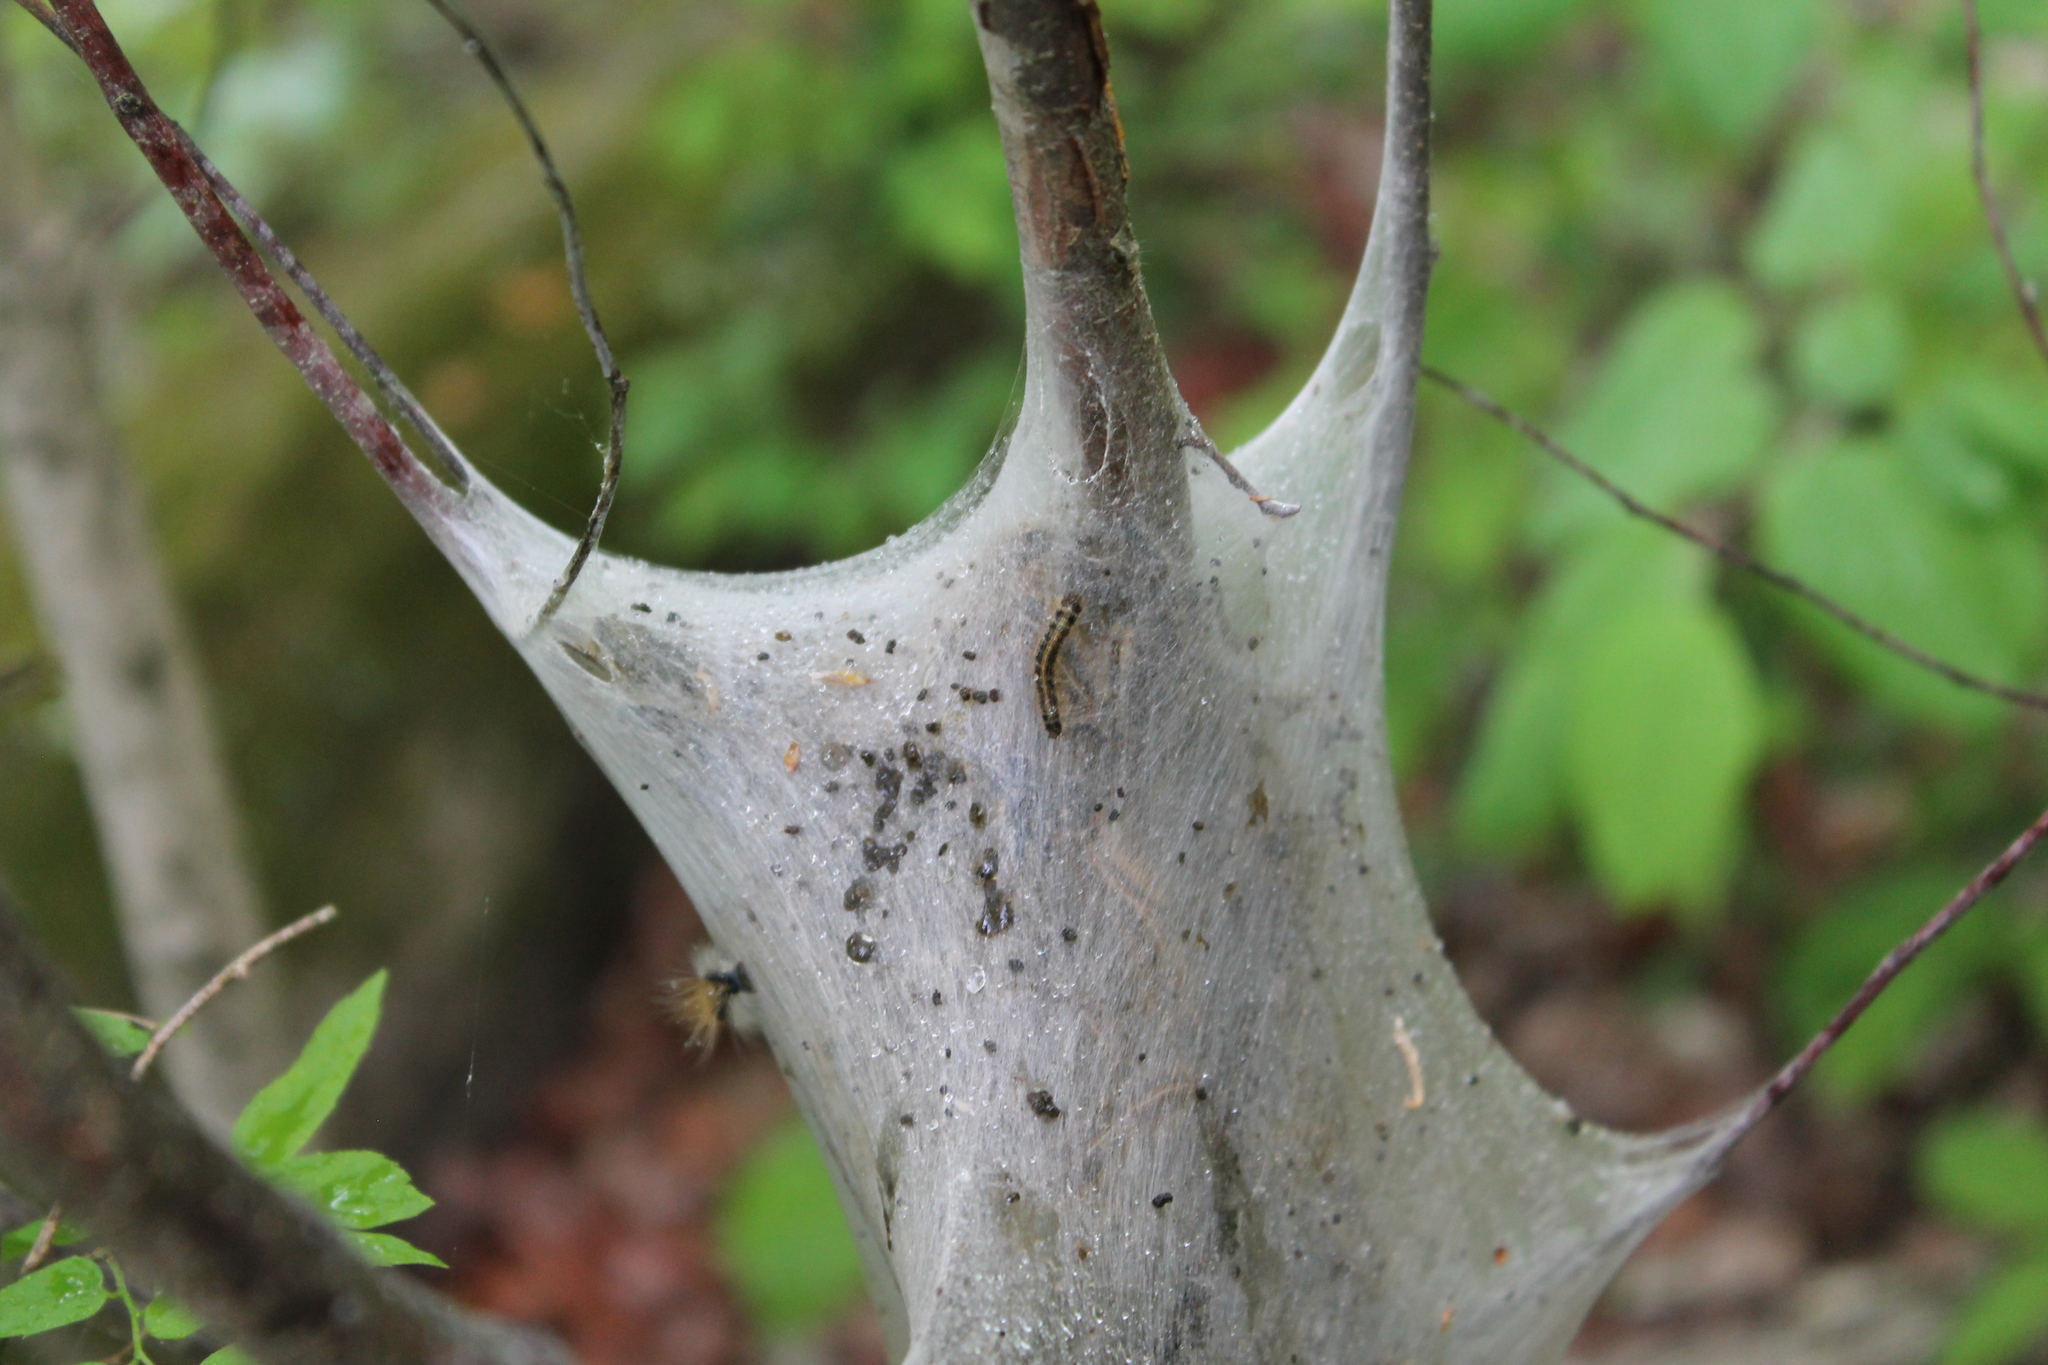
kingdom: Animalia
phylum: Arthropoda
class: Insecta
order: Lepidoptera
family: Lasiocampidae
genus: Malacosoma
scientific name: Malacosoma americana
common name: Eastern tent caterpillar moth
